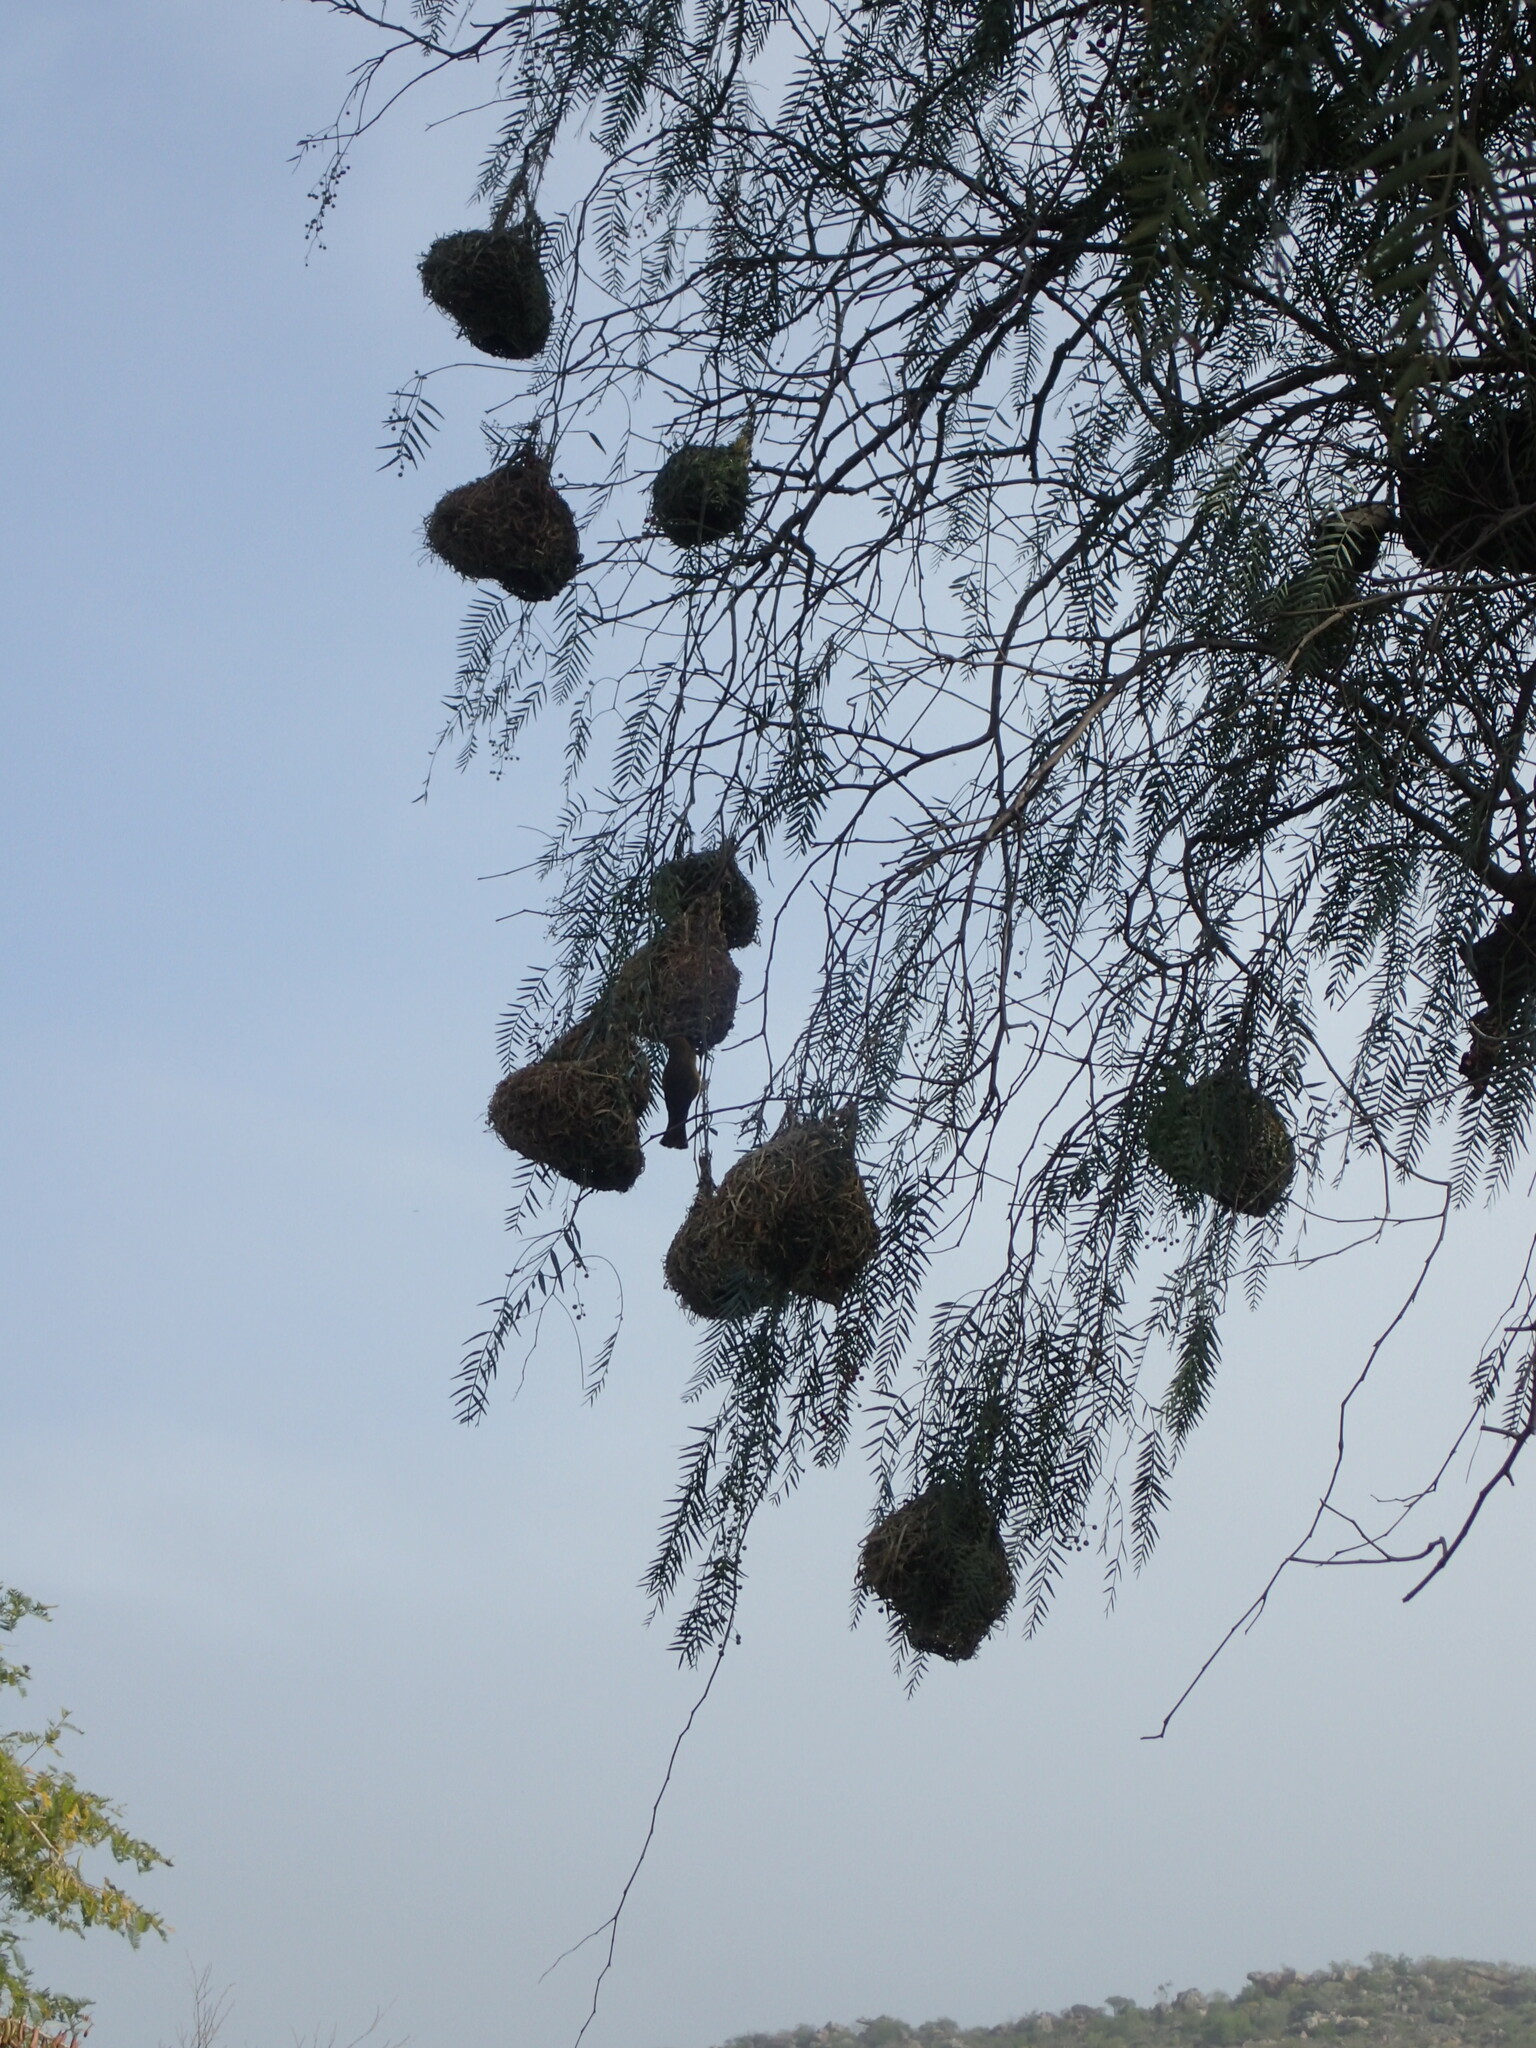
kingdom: Animalia
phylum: Chordata
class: Aves
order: Passeriformes
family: Ploceidae
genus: Ploceus
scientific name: Ploceus velatus
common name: Southern masked weaver
